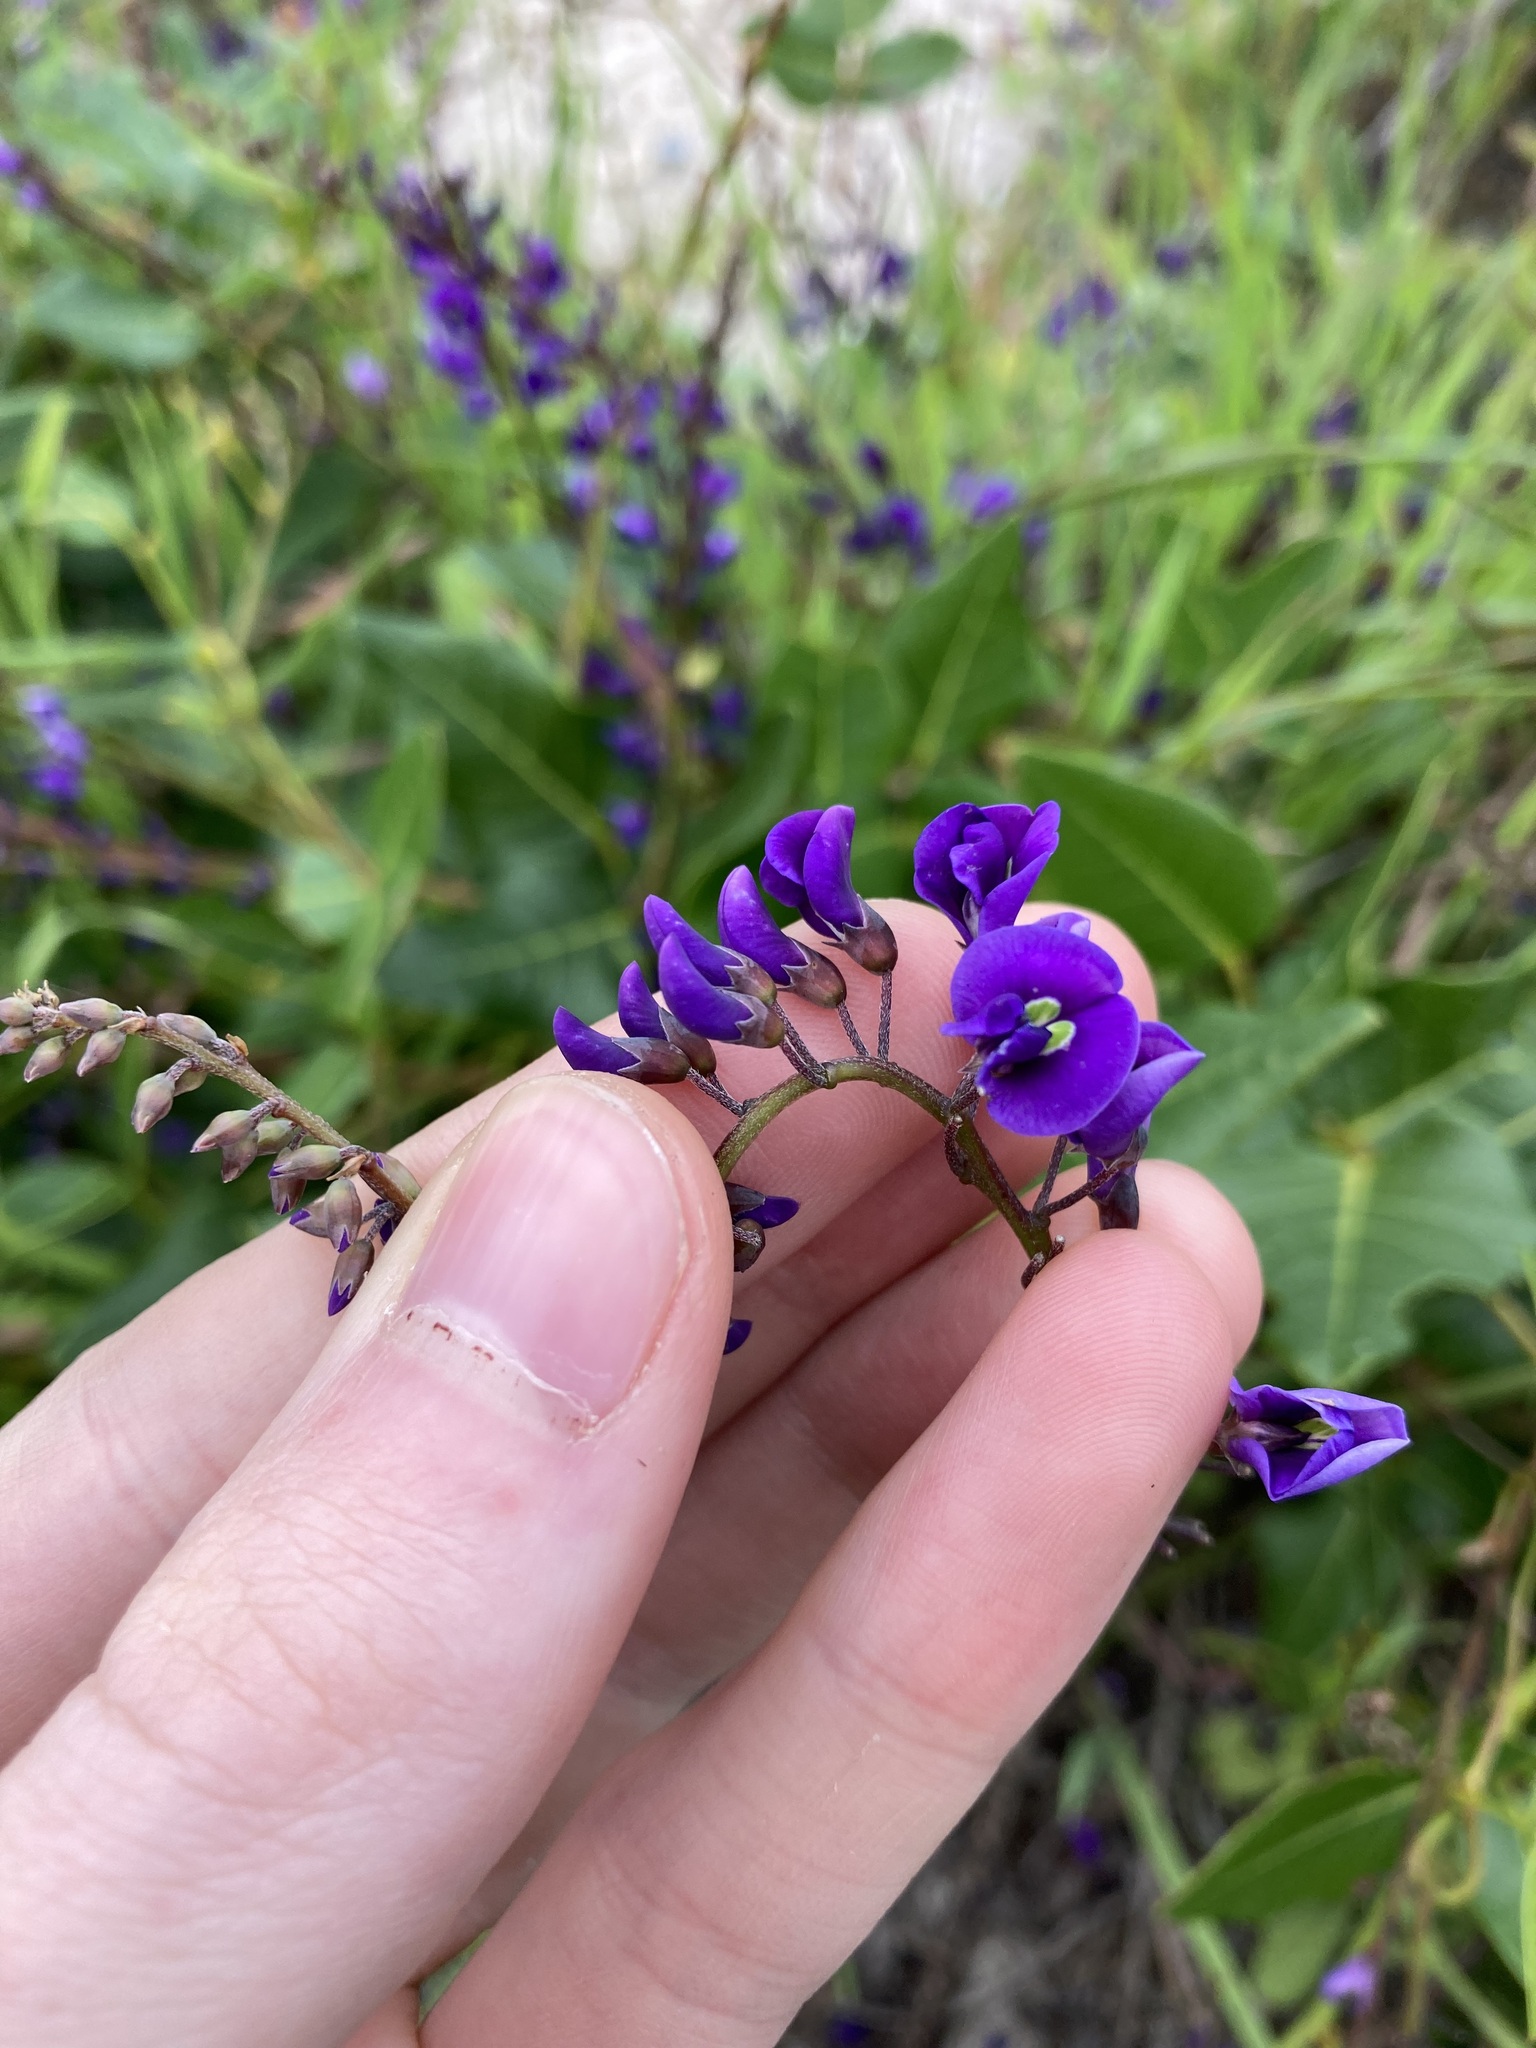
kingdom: Plantae
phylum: Tracheophyta
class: Magnoliopsida
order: Fabales
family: Fabaceae
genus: Hardenbergia
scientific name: Hardenbergia comptoniana
